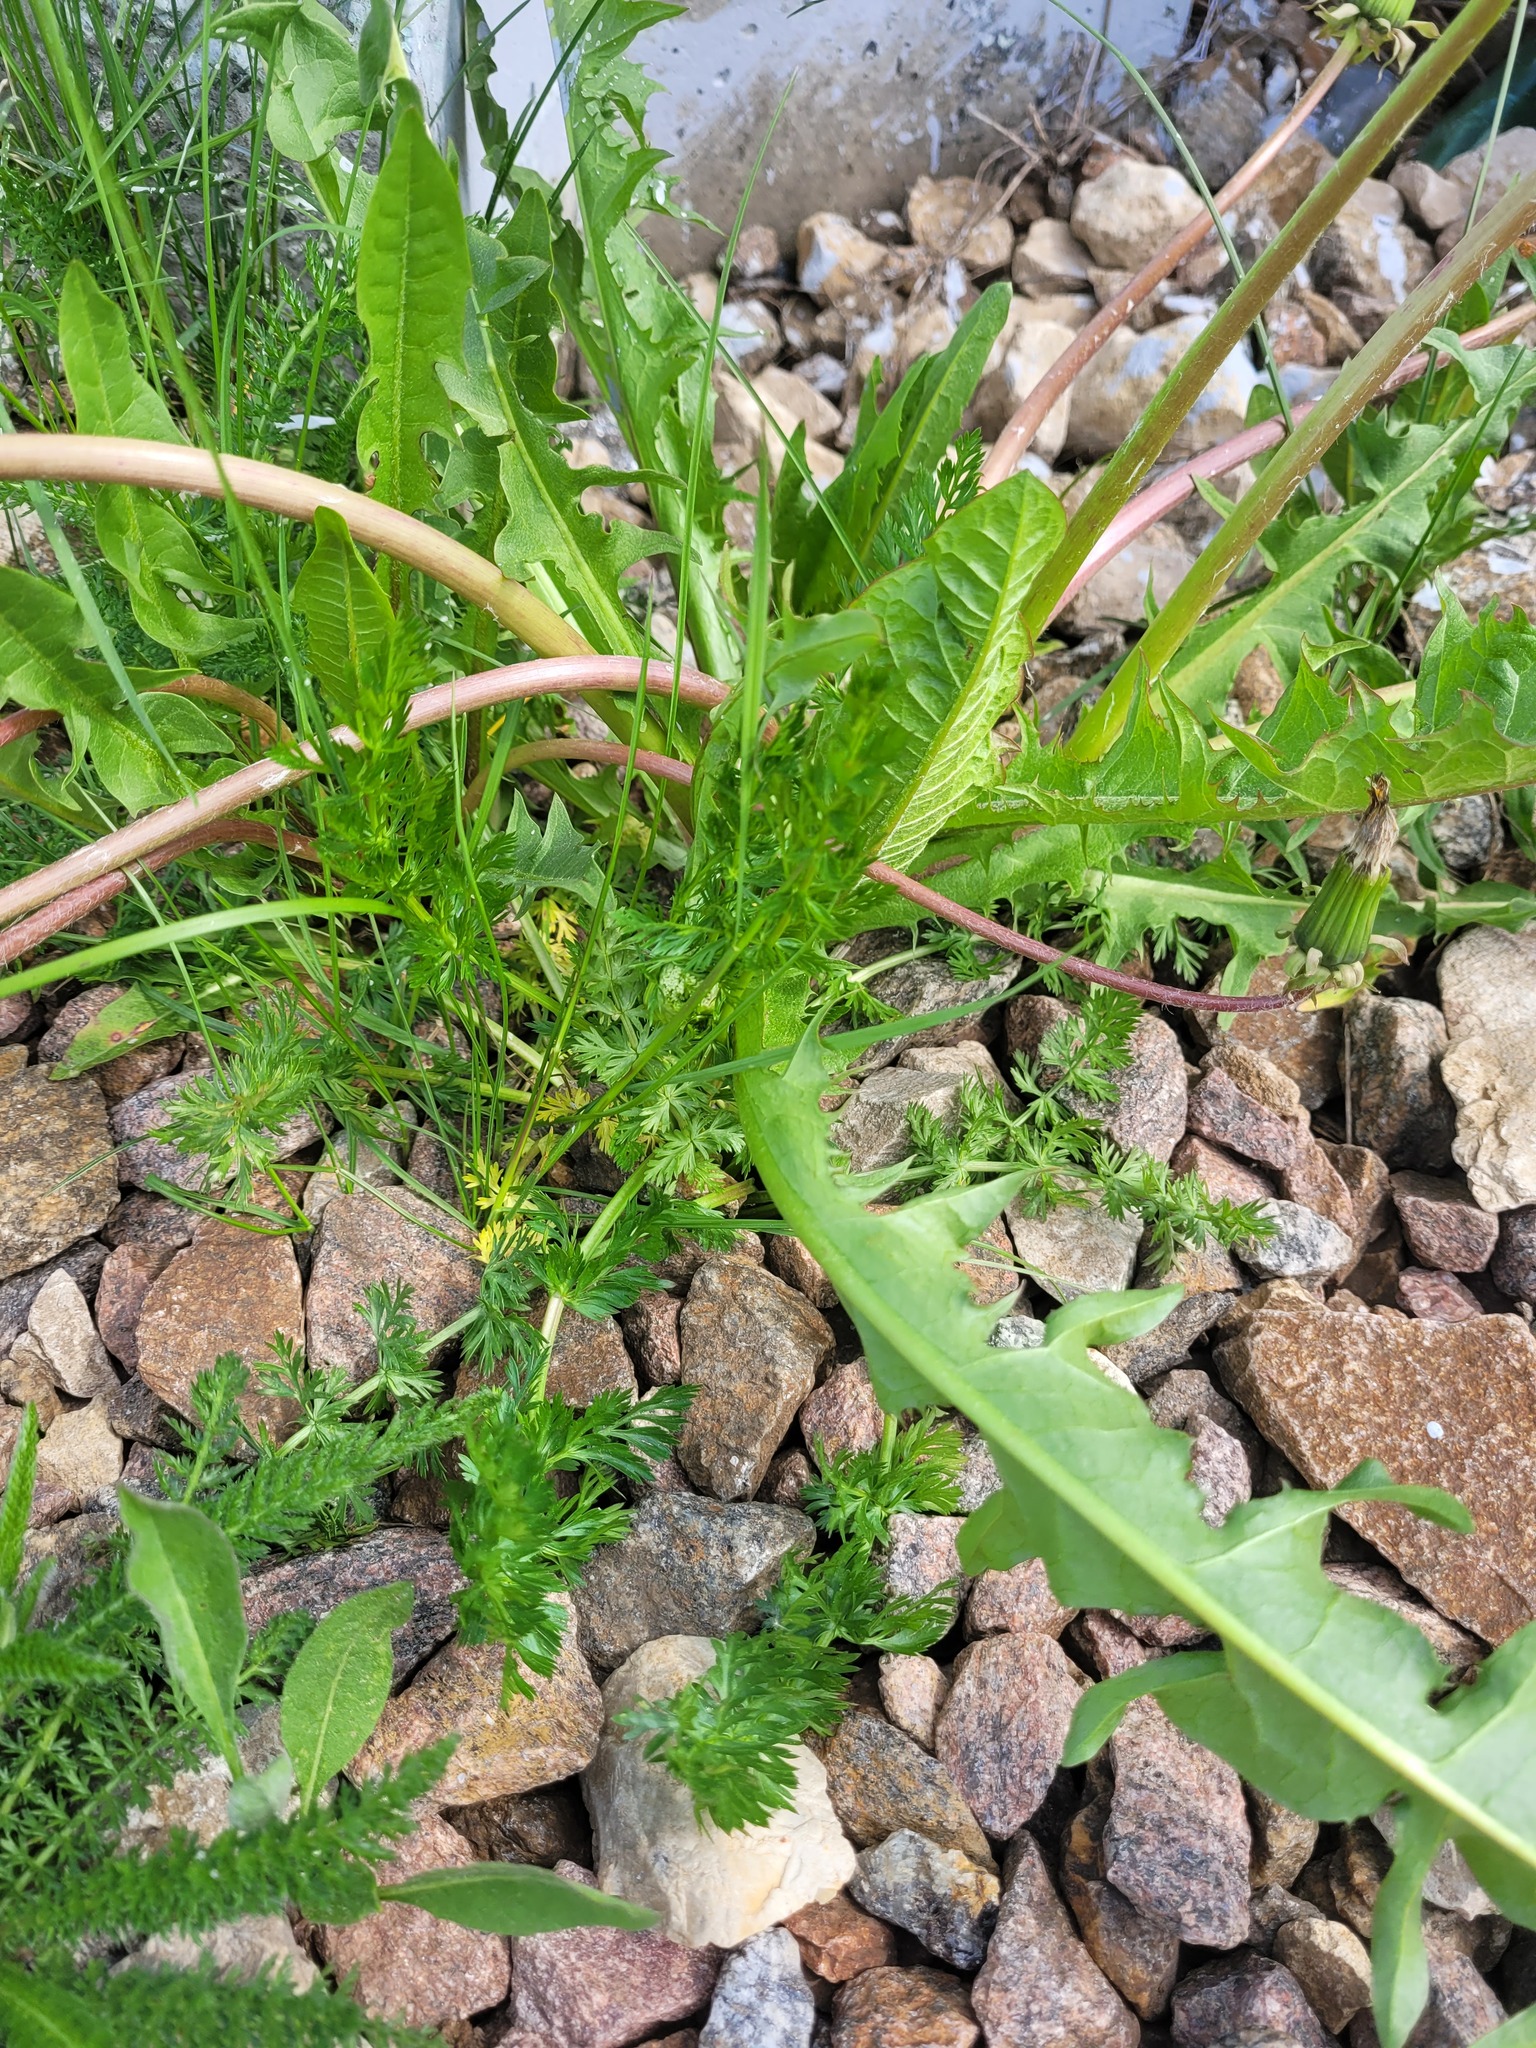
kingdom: Plantae
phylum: Tracheophyta
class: Magnoliopsida
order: Apiales
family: Apiaceae
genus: Carum
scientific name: Carum carvi
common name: Caraway
